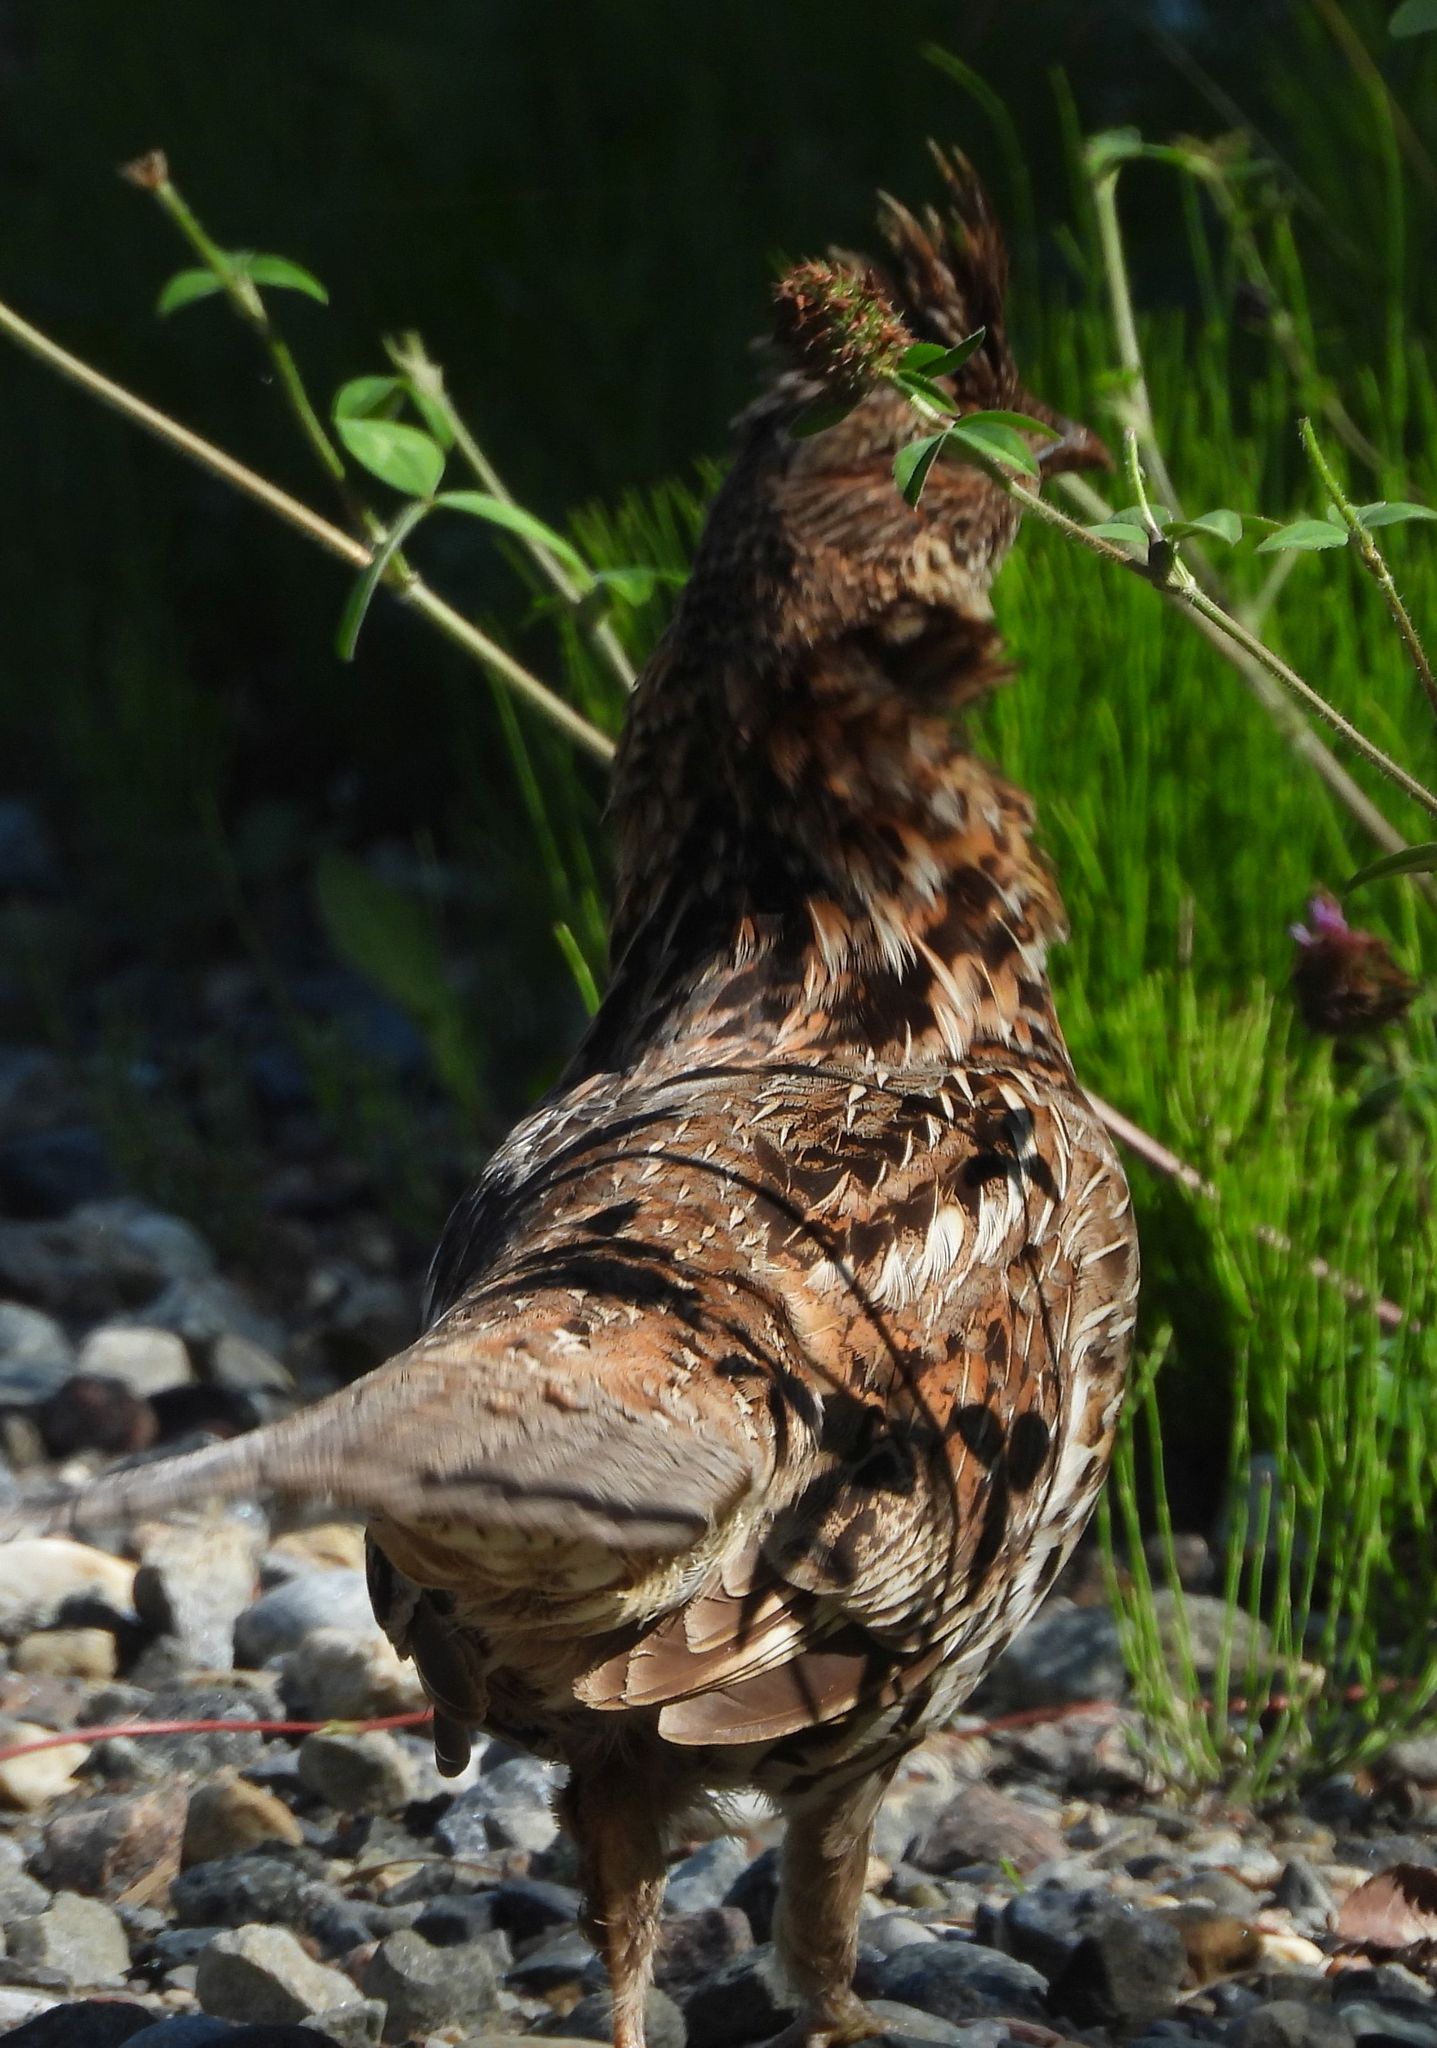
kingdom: Animalia
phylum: Chordata
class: Aves
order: Galliformes
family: Phasianidae
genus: Bonasa
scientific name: Bonasa umbellus
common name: Ruffed grouse
